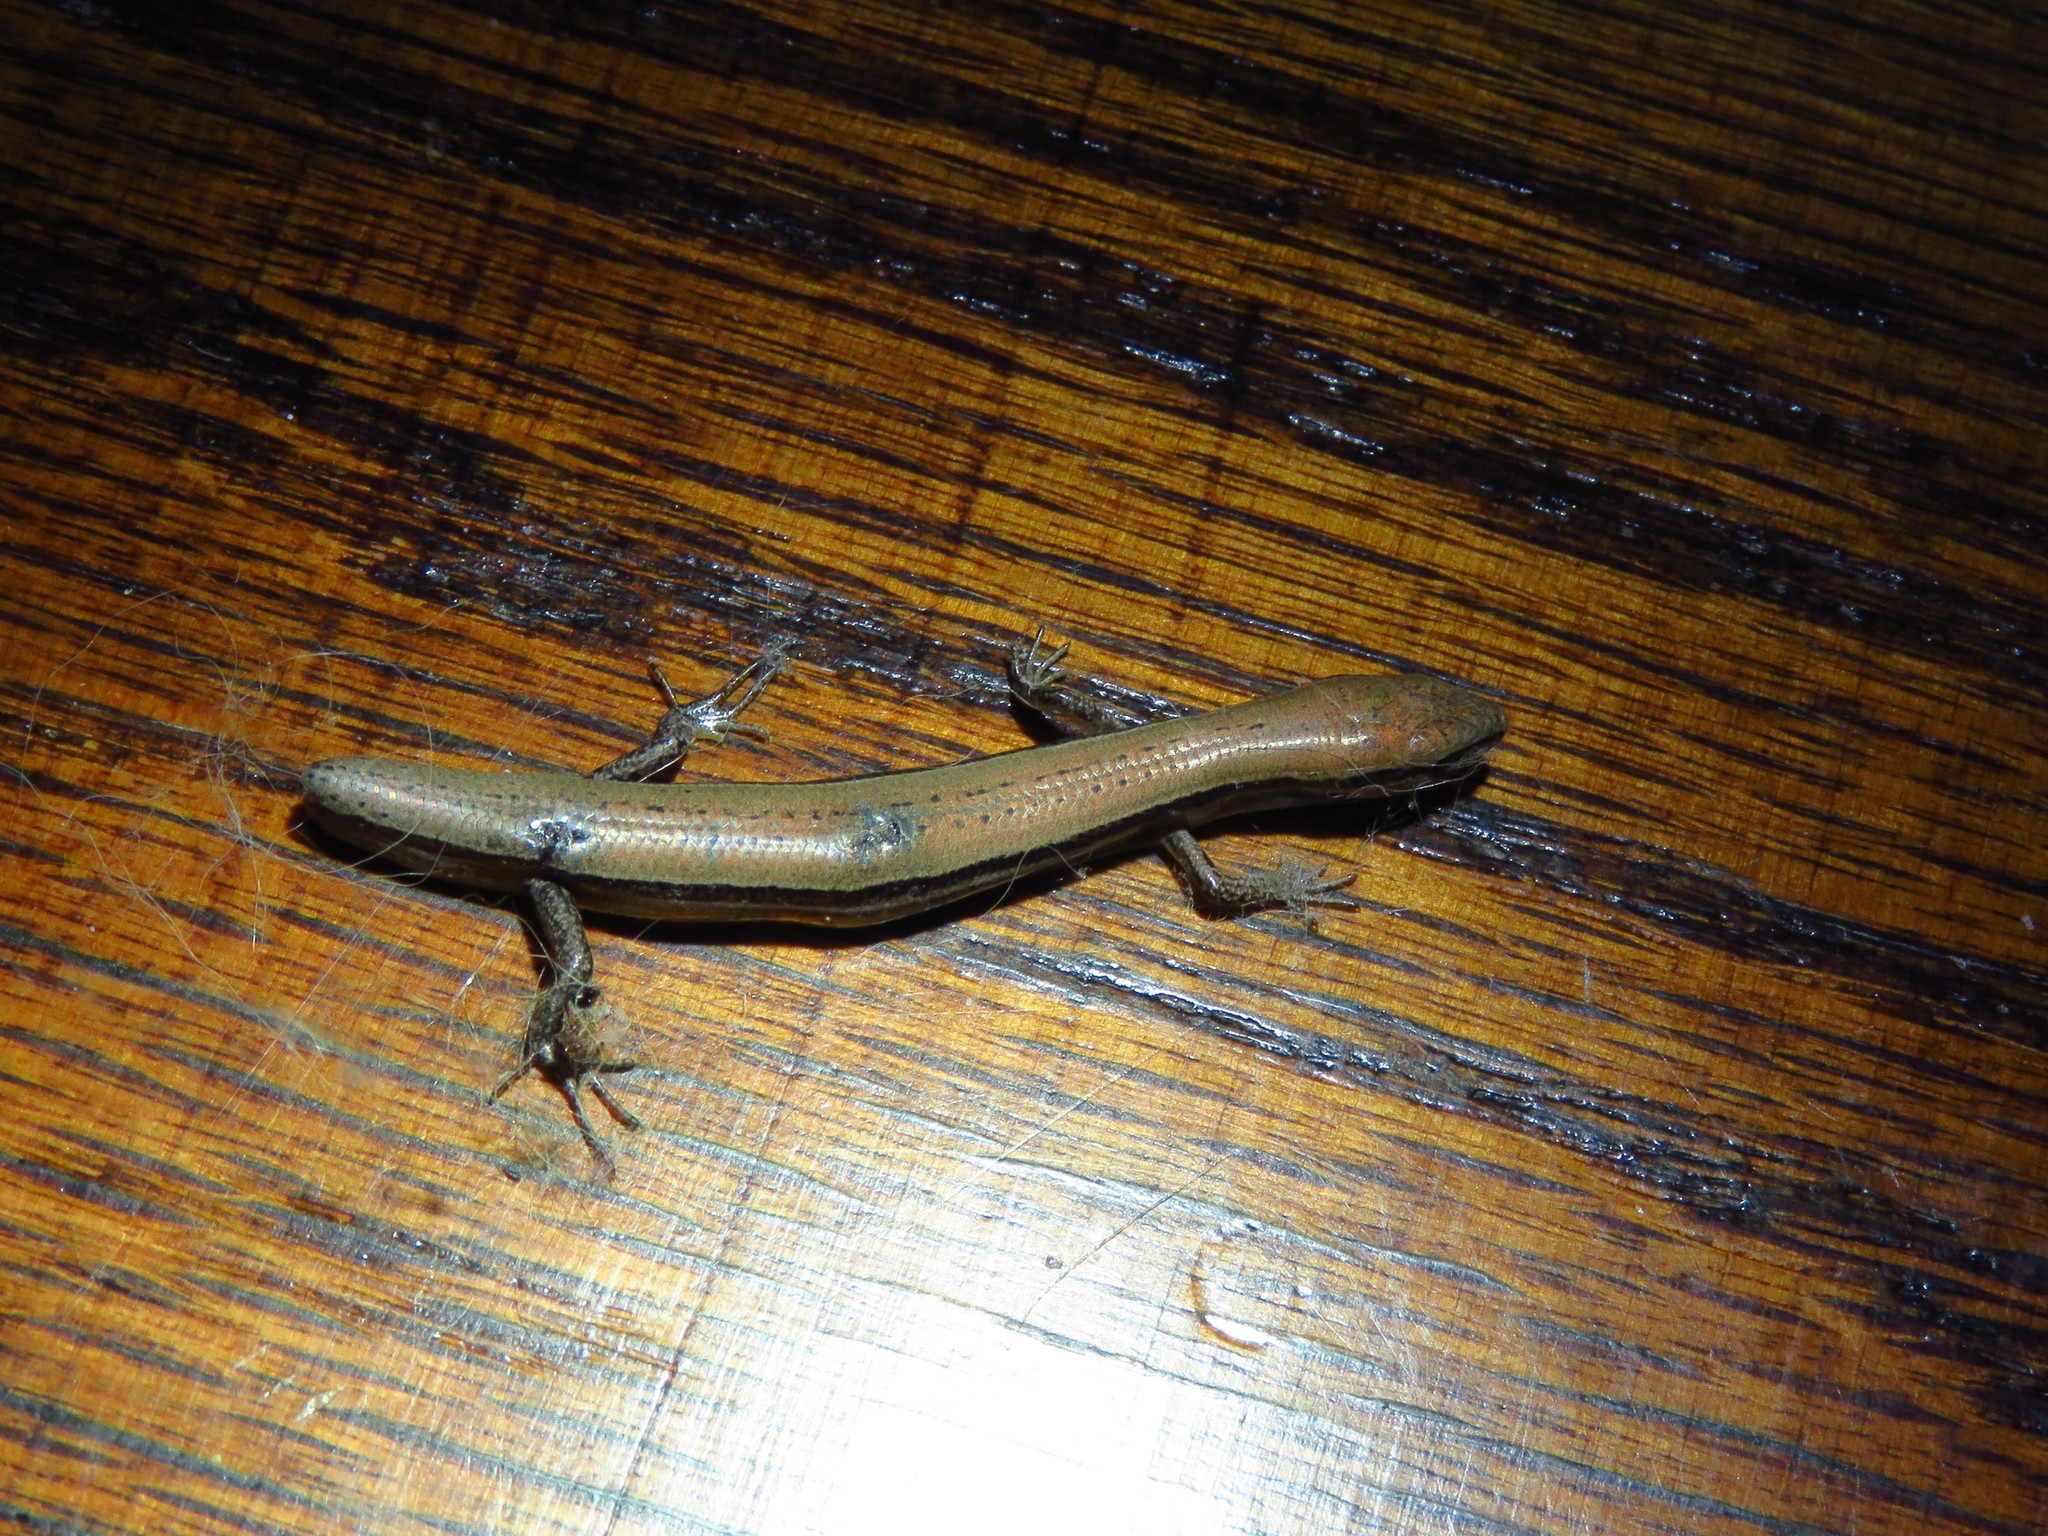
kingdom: Animalia
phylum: Chordata
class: Squamata
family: Scincidae
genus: Scincella
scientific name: Scincella lateralis
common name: Ground skink
